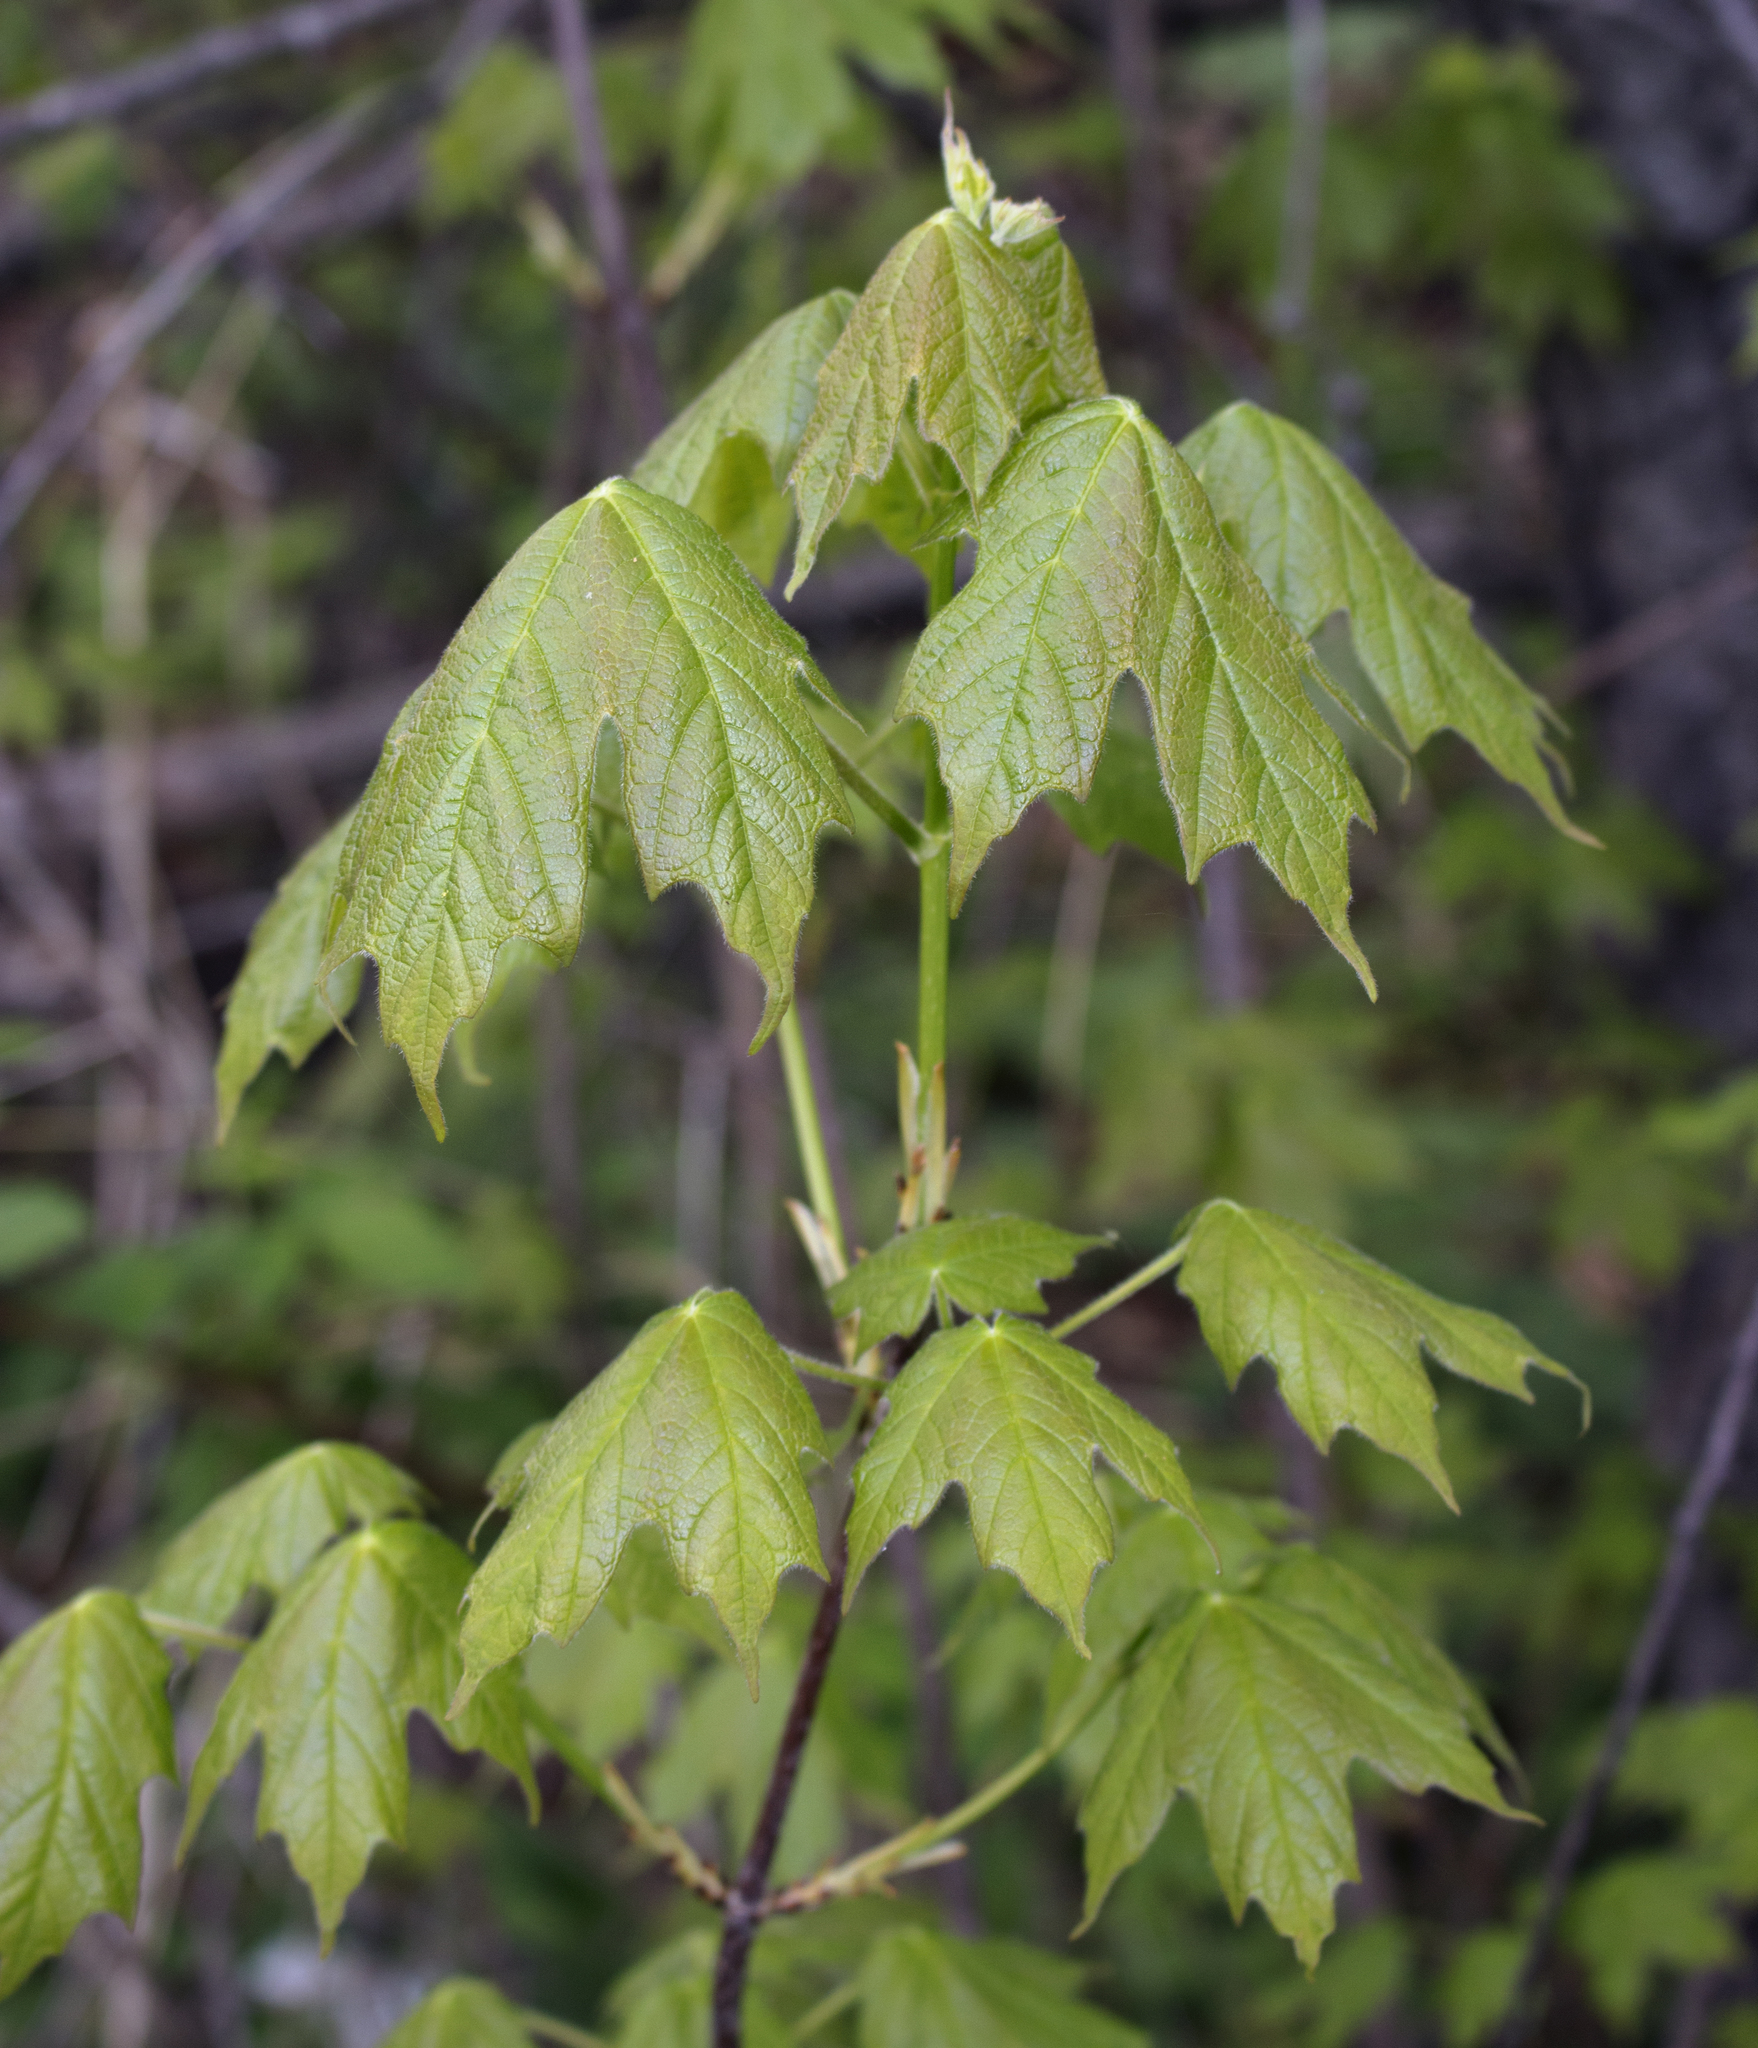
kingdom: Plantae
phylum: Tracheophyta
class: Magnoliopsida
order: Sapindales
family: Sapindaceae
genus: Acer
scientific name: Acer saccharum
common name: Sugar maple
